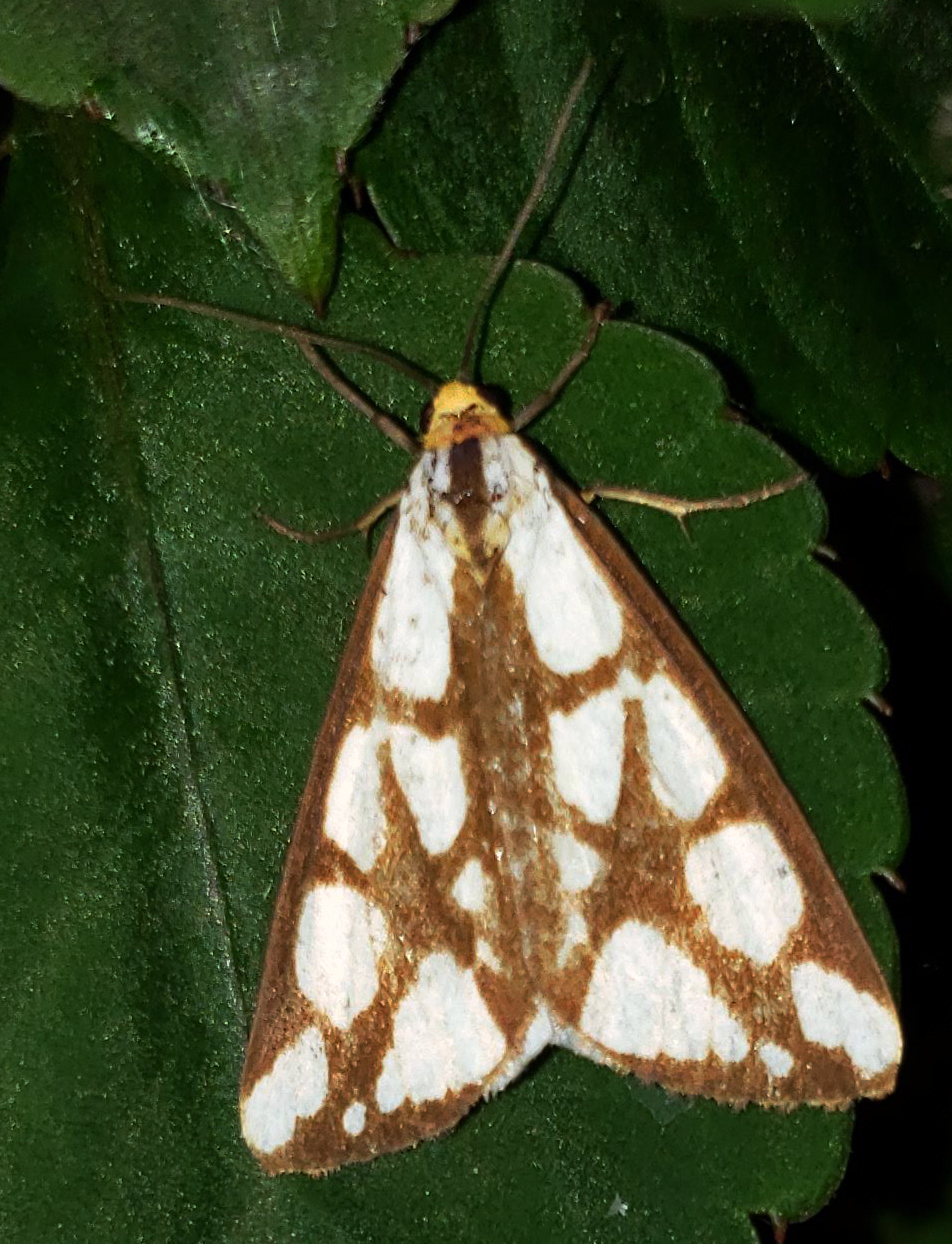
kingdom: Animalia
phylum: Arthropoda
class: Insecta
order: Lepidoptera
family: Erebidae
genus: Haploa
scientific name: Haploa confusa
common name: Confused haploa moth
